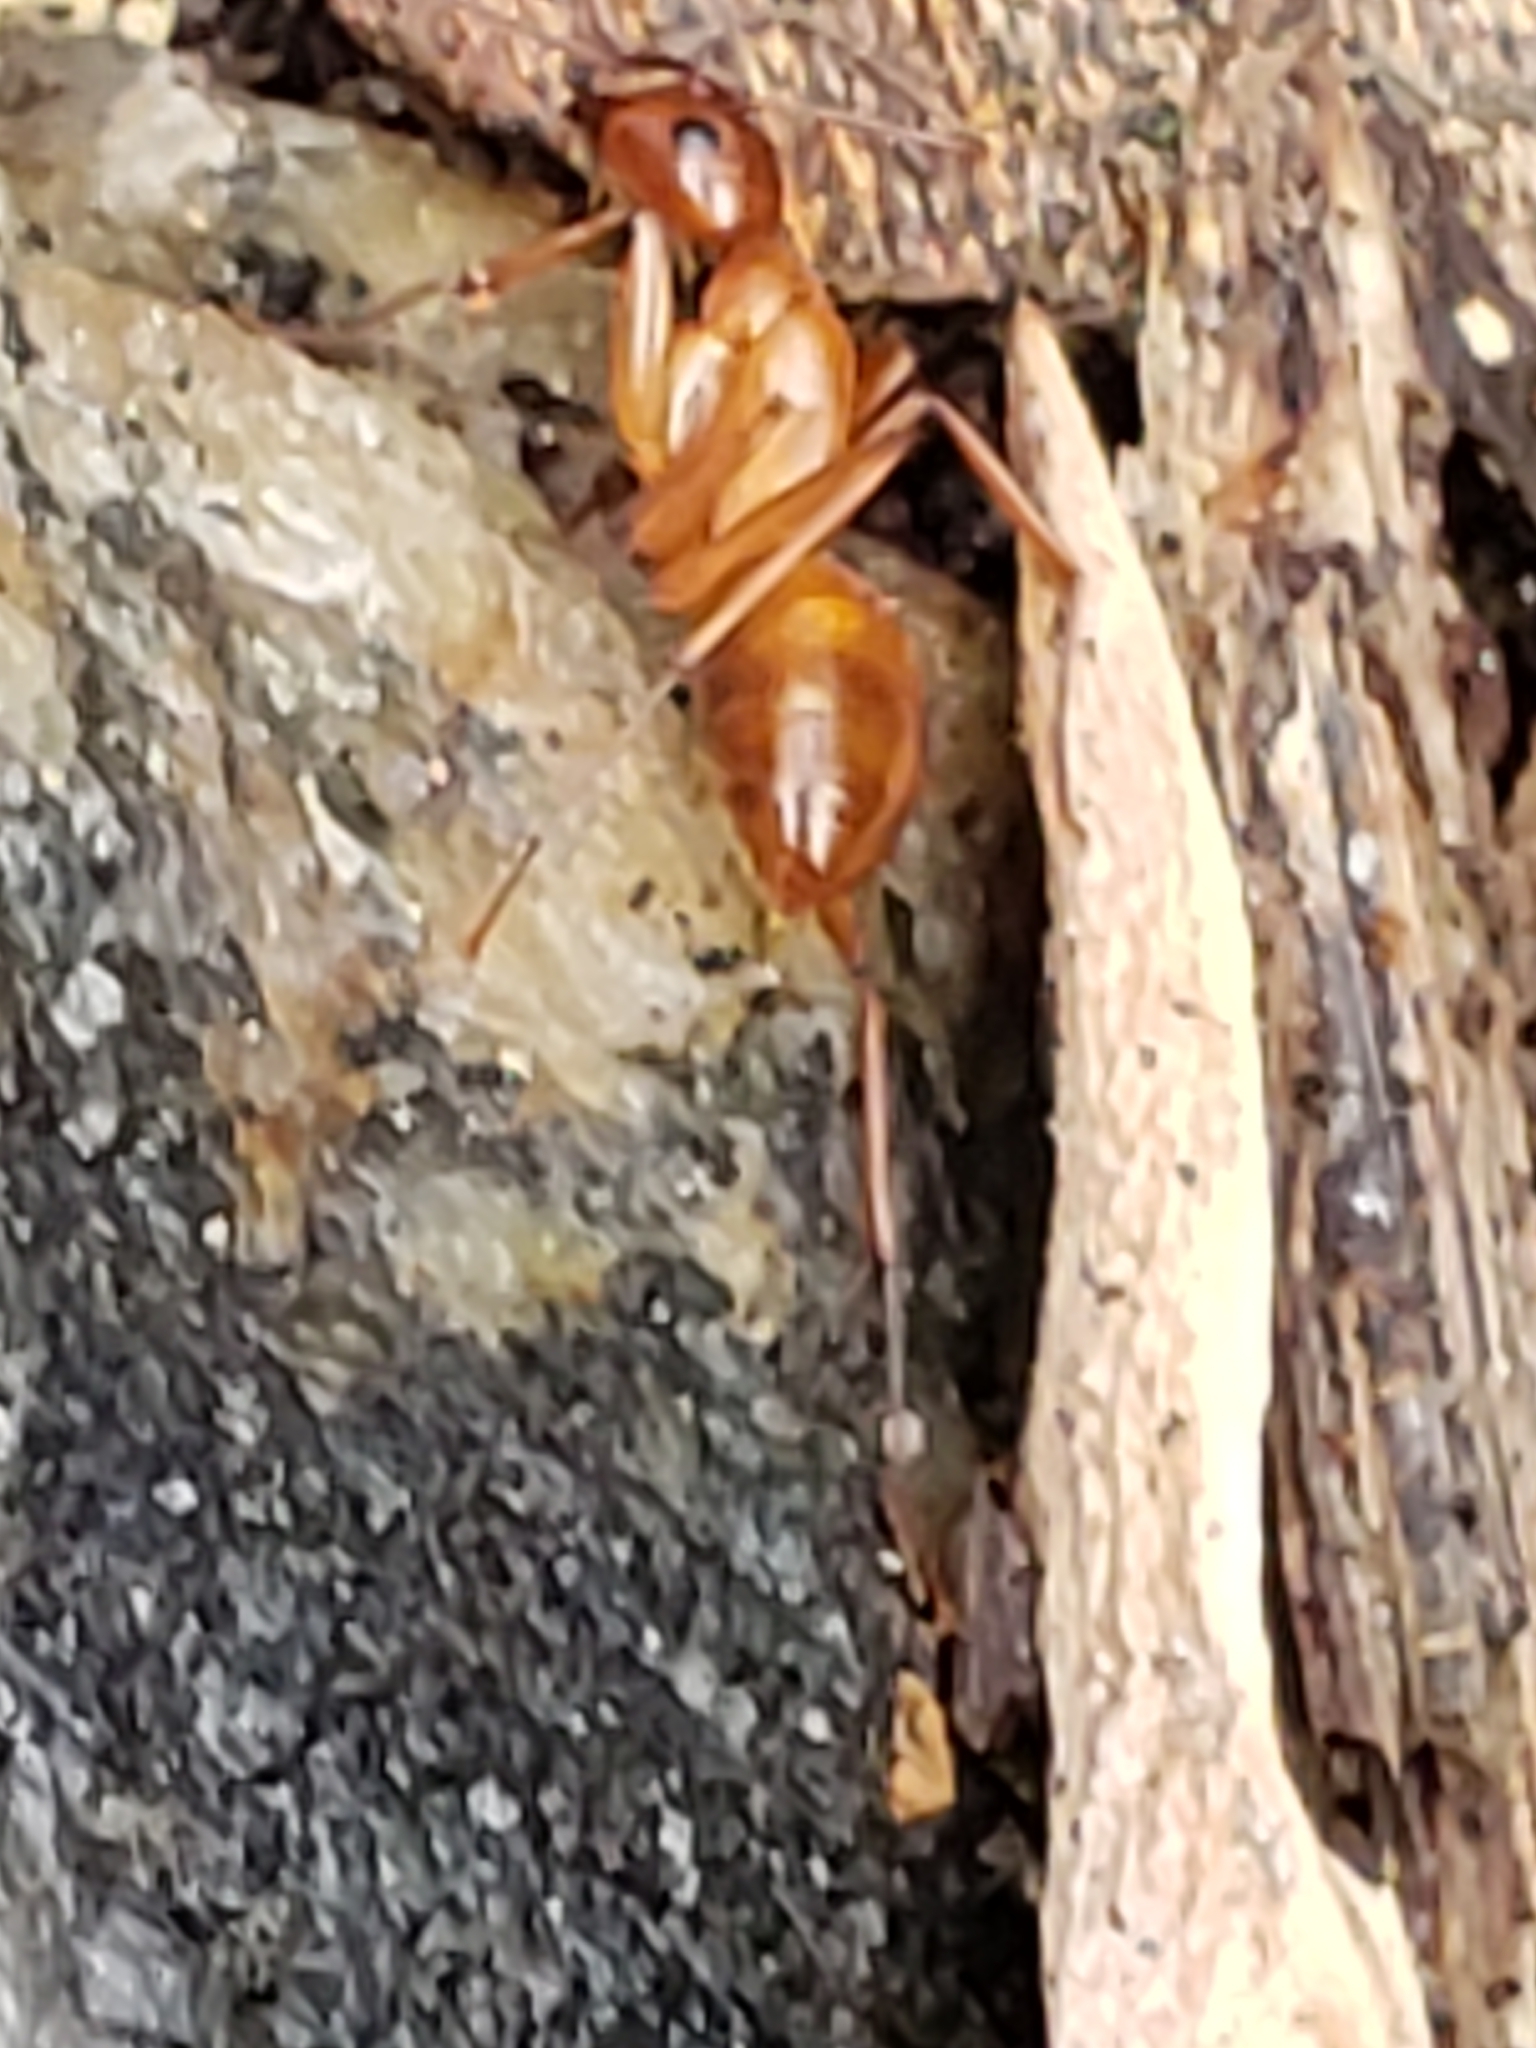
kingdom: Animalia
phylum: Arthropoda
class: Insecta
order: Hymenoptera
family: Formicidae
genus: Camponotus
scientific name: Camponotus castaneus
